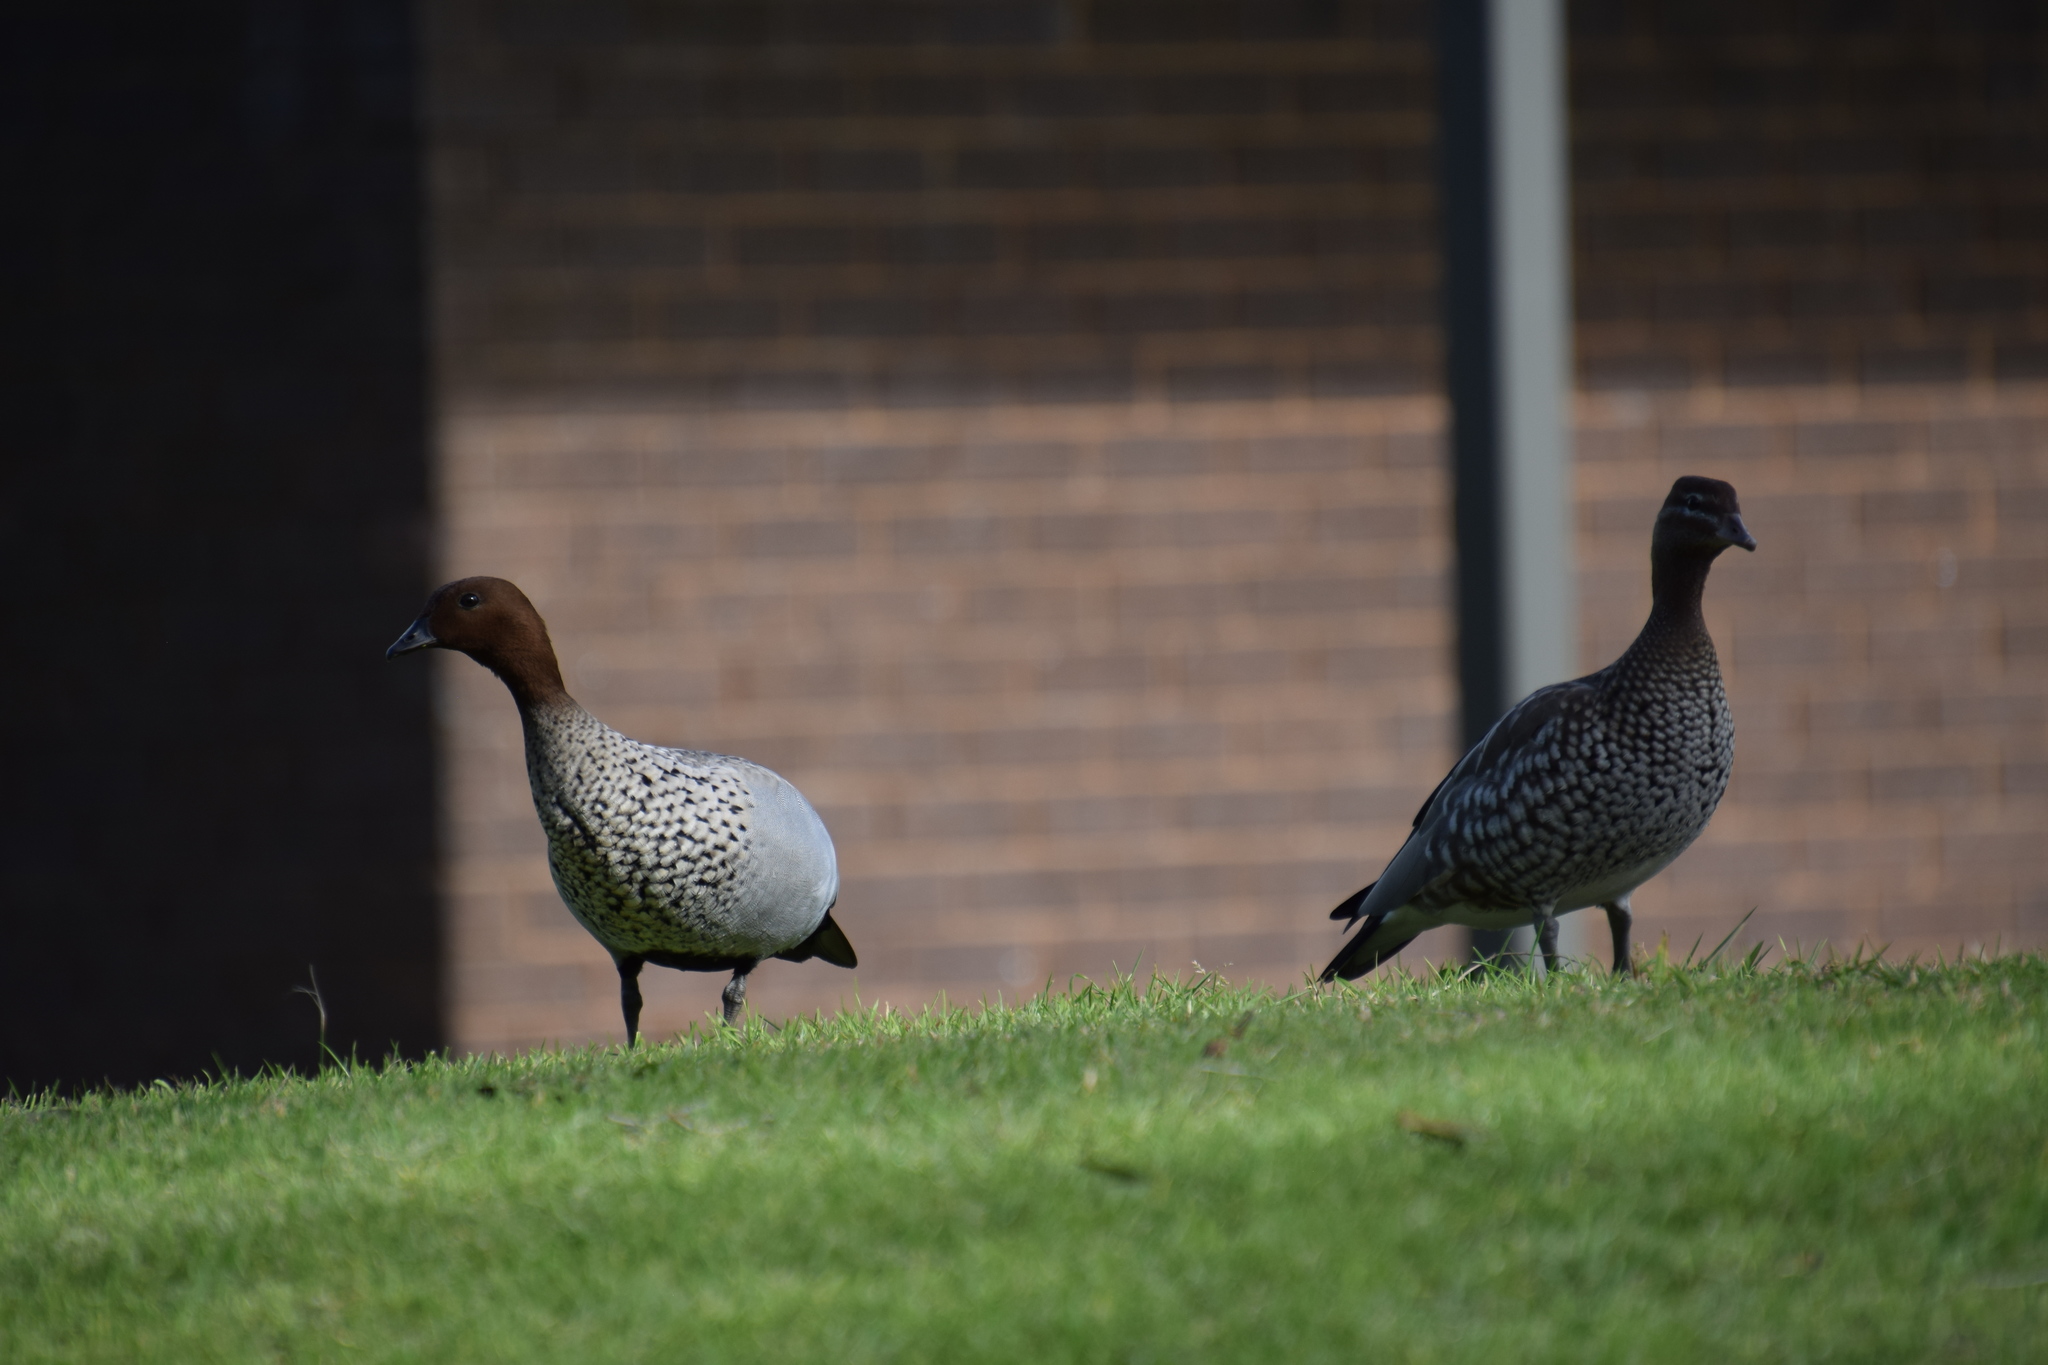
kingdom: Animalia
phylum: Chordata
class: Aves
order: Anseriformes
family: Anatidae
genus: Chenonetta
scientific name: Chenonetta jubata
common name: Maned duck
